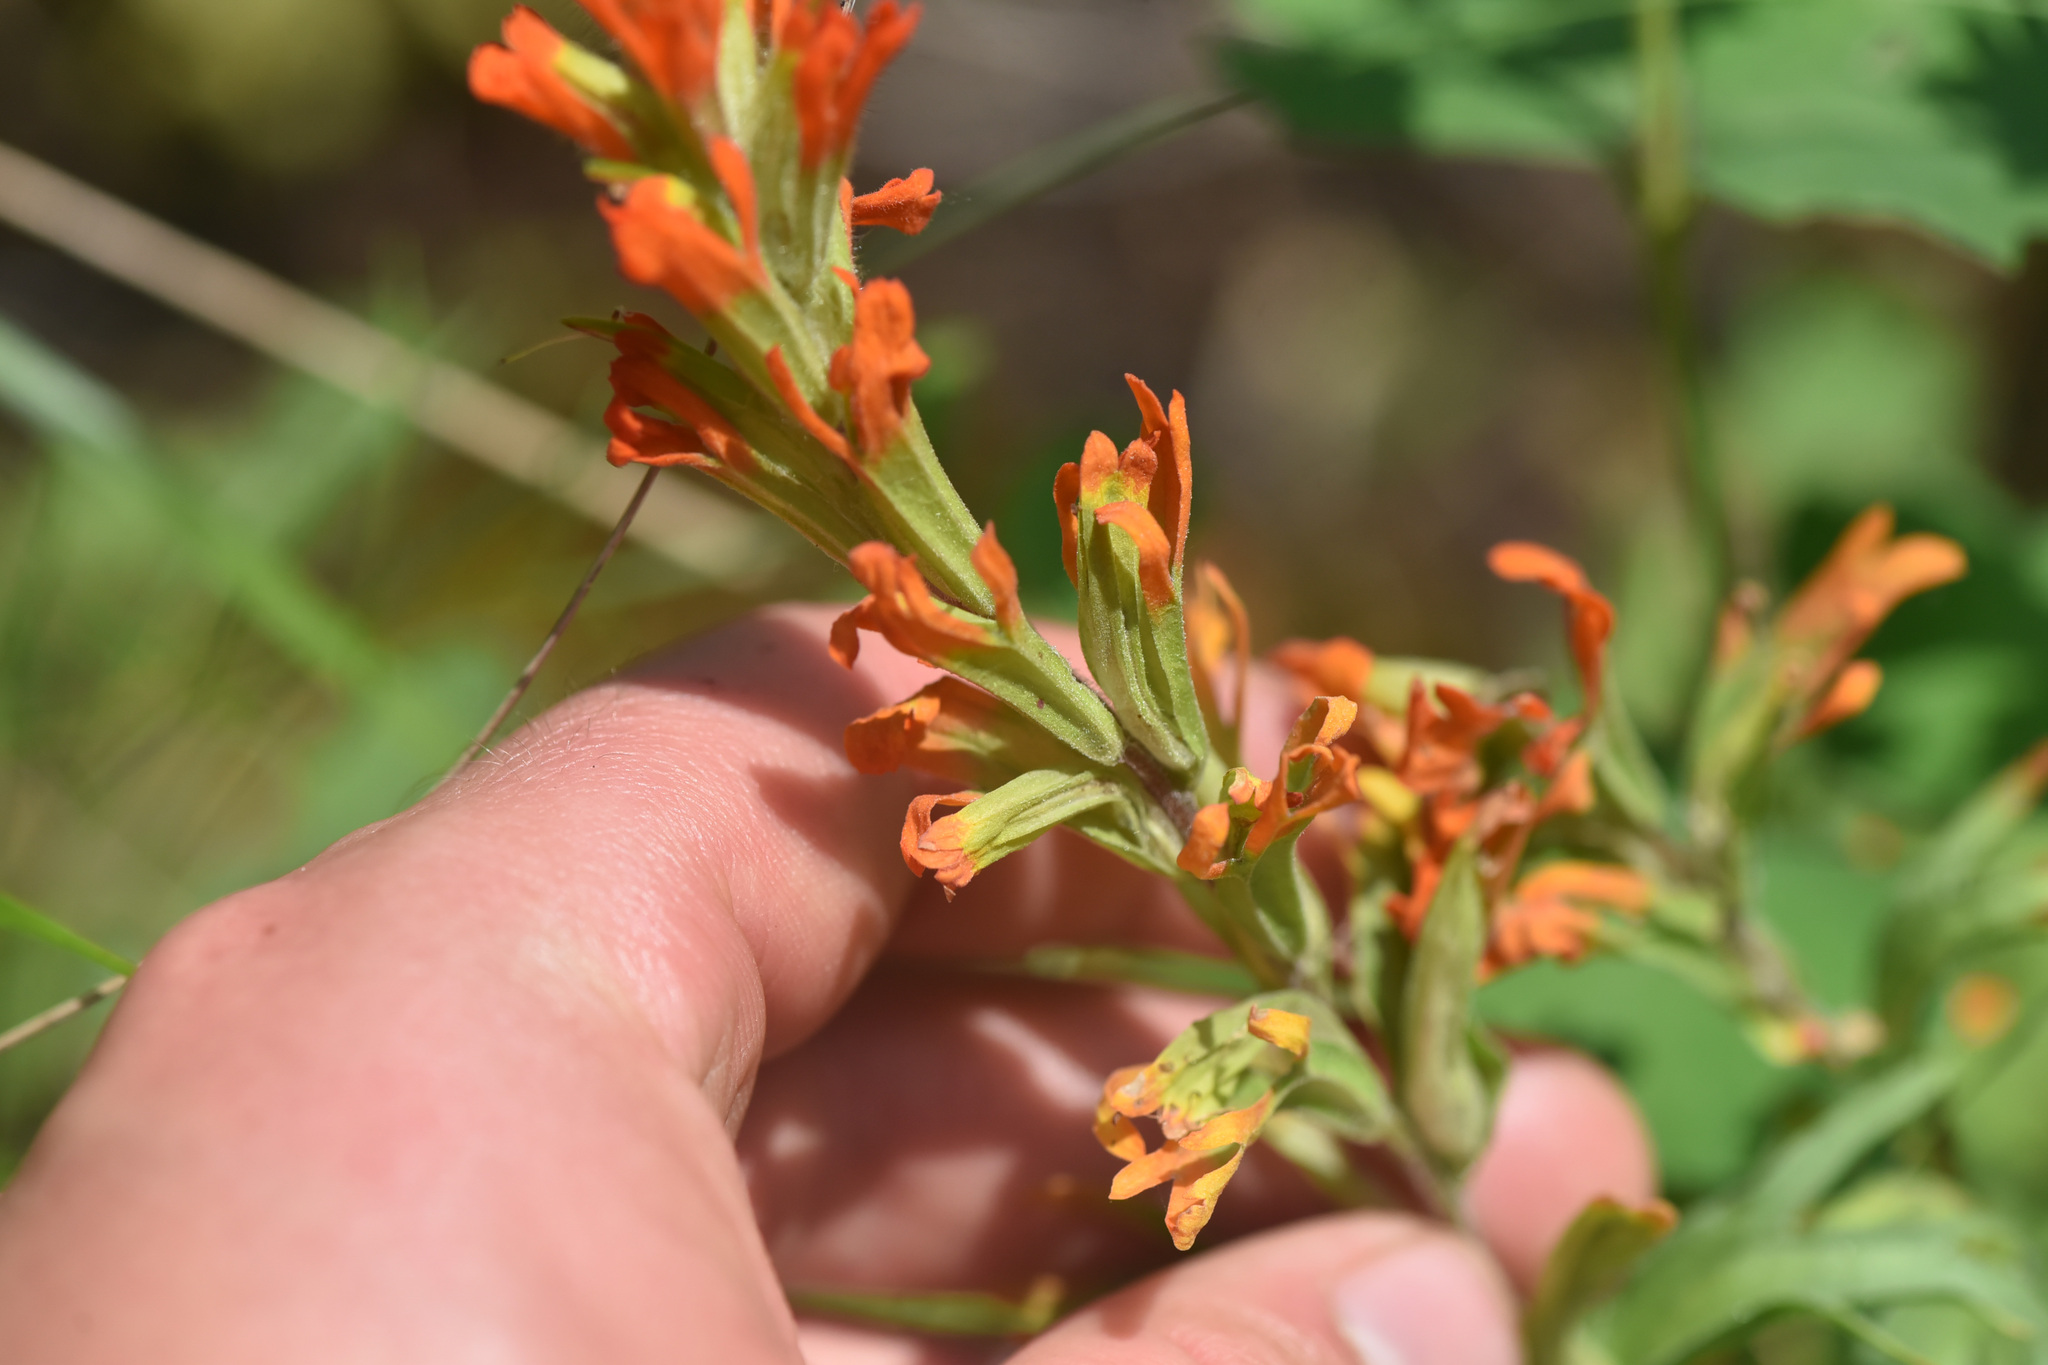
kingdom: Plantae
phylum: Tracheophyta
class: Magnoliopsida
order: Lamiales
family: Orobanchaceae
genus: Castilleja
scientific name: Castilleja hispida
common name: Bristly paintbrush
